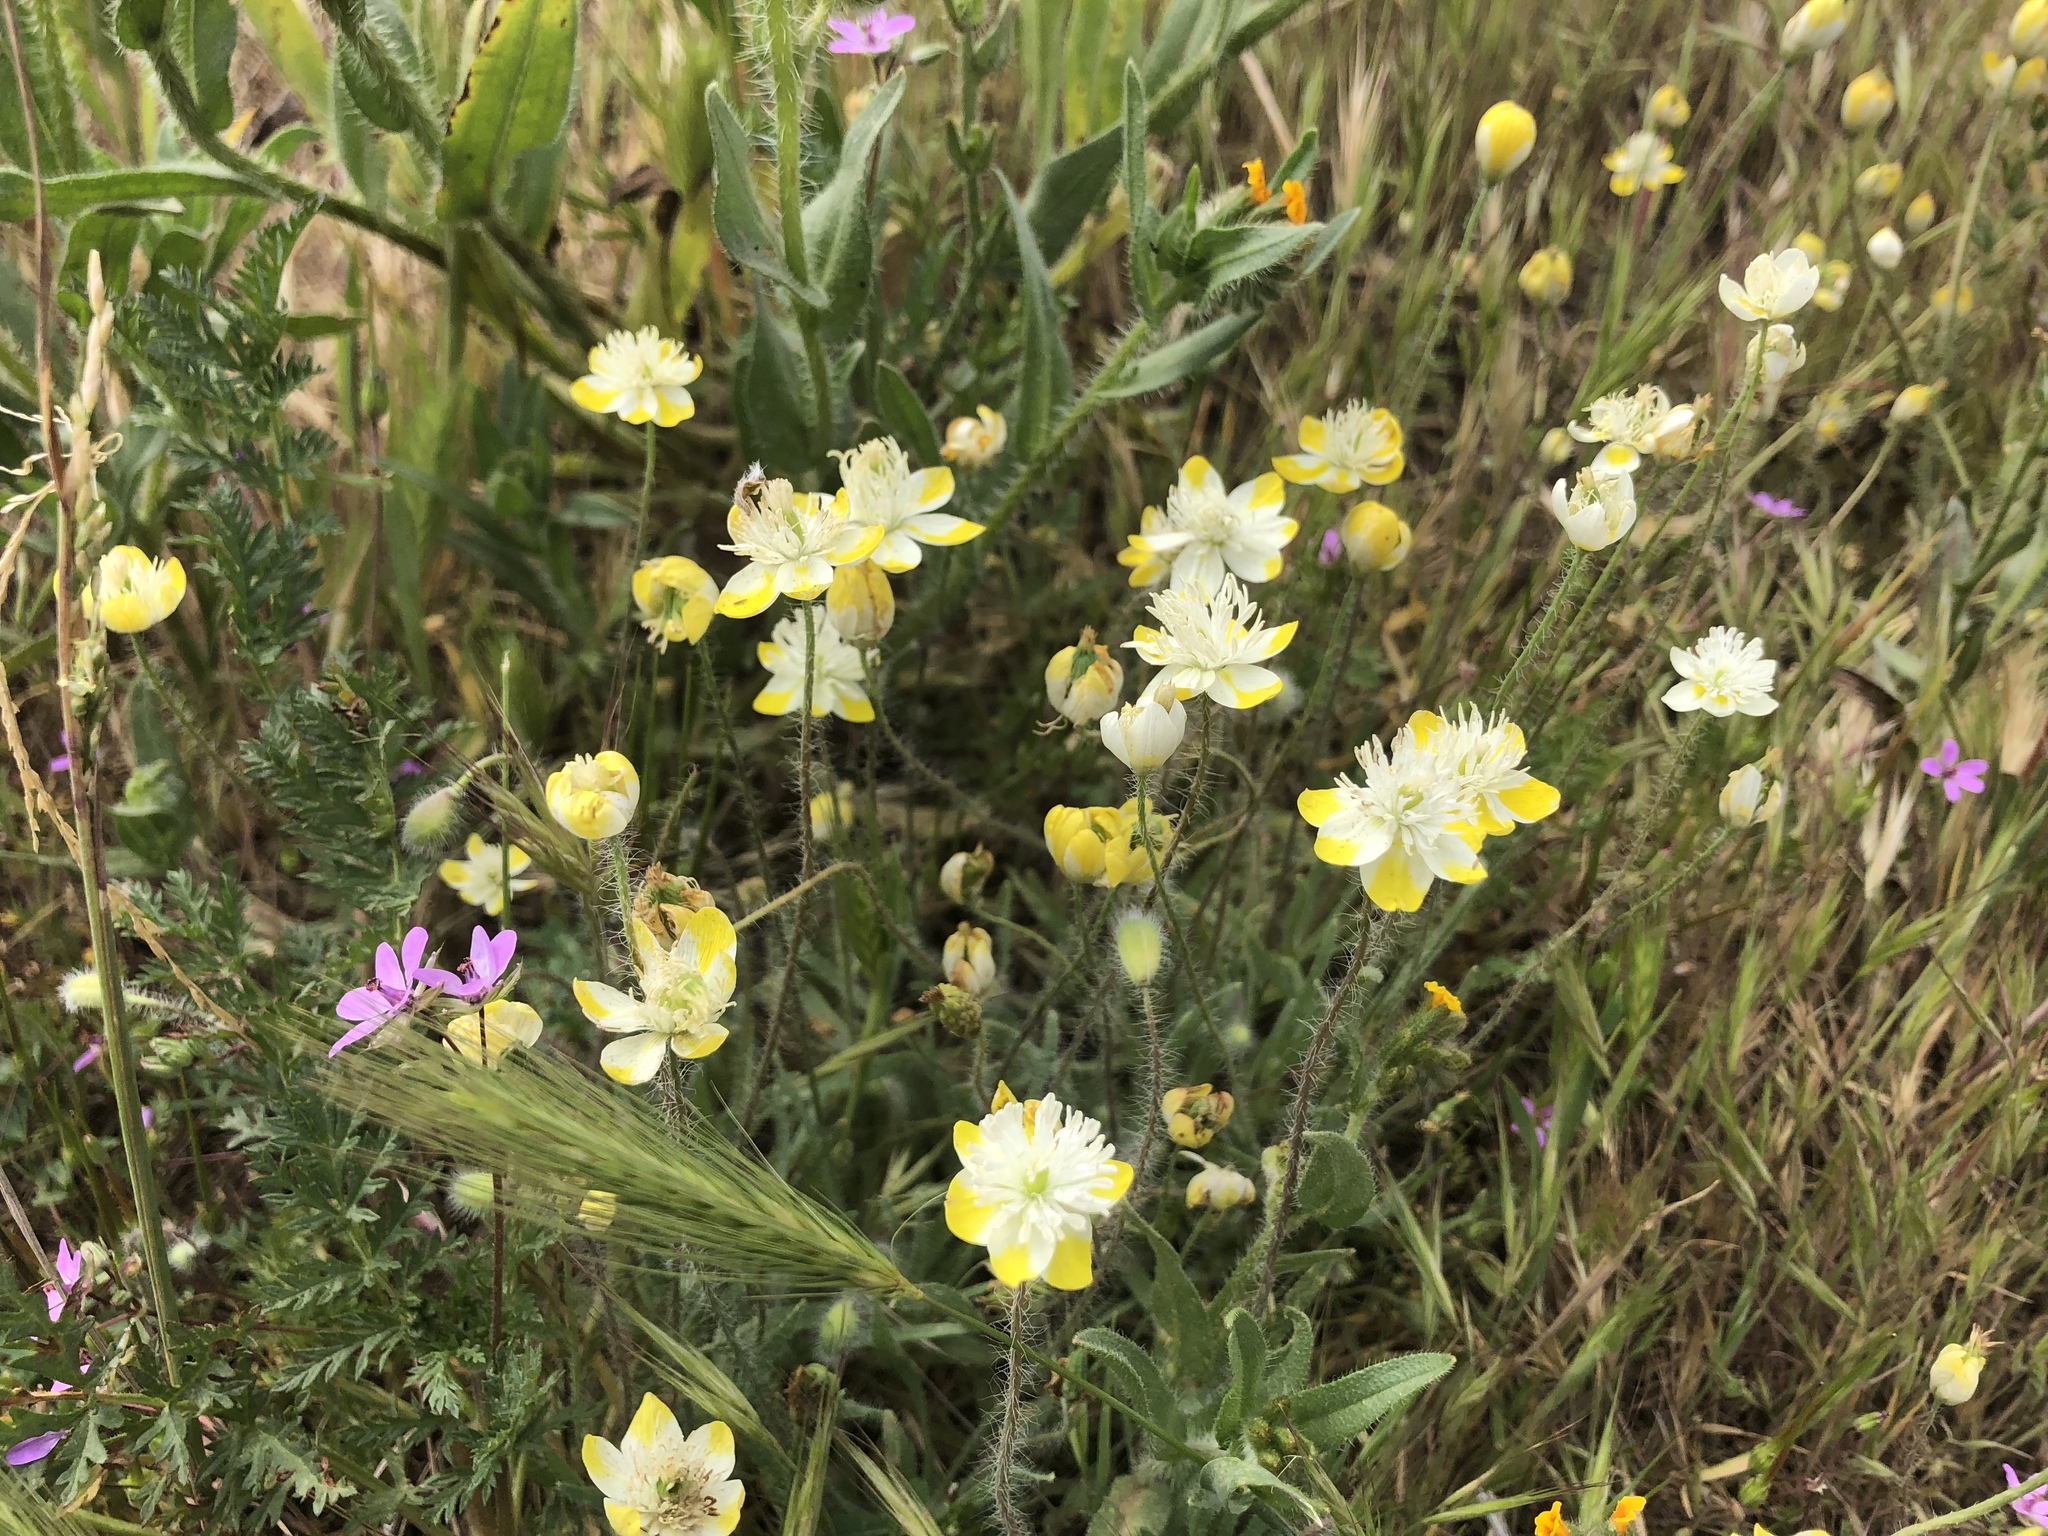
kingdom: Plantae
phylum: Tracheophyta
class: Magnoliopsida
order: Ranunculales
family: Papaveraceae
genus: Platystemon
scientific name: Platystemon californicus
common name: Cream-cups
